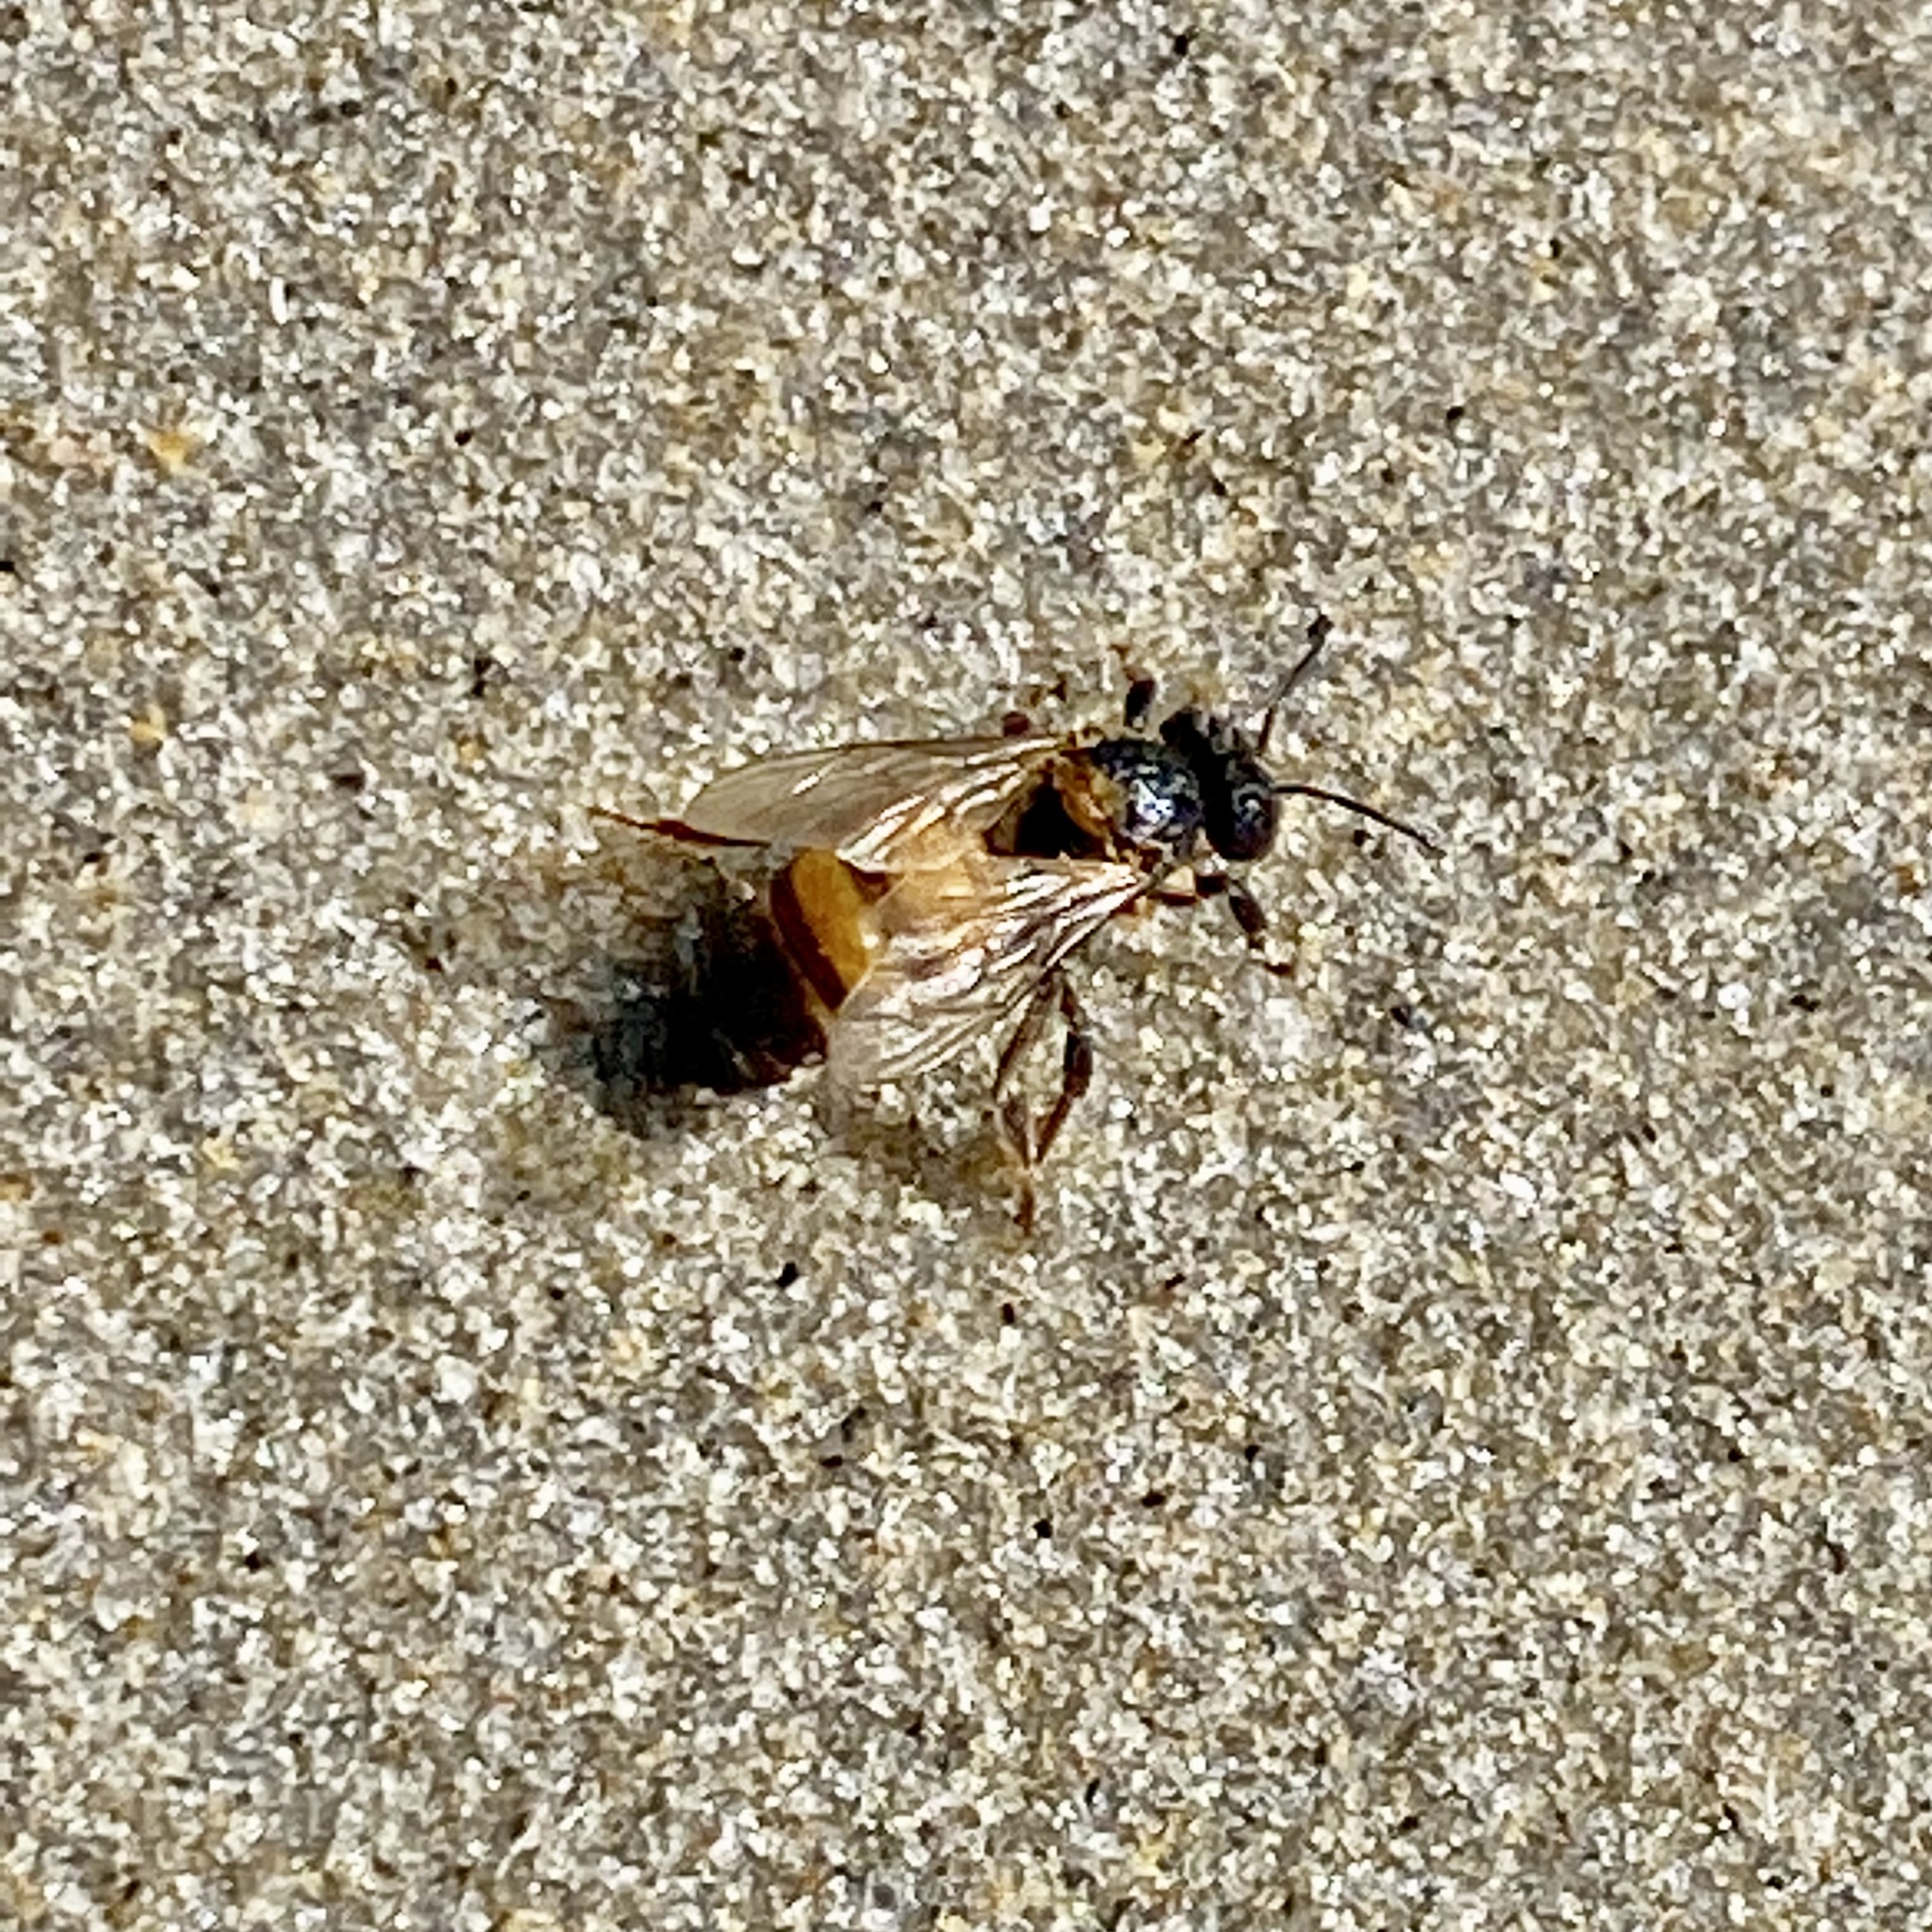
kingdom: Animalia
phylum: Arthropoda
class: Insecta
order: Hymenoptera
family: Apidae
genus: Apis
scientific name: Apis mellifera
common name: Honey bee
